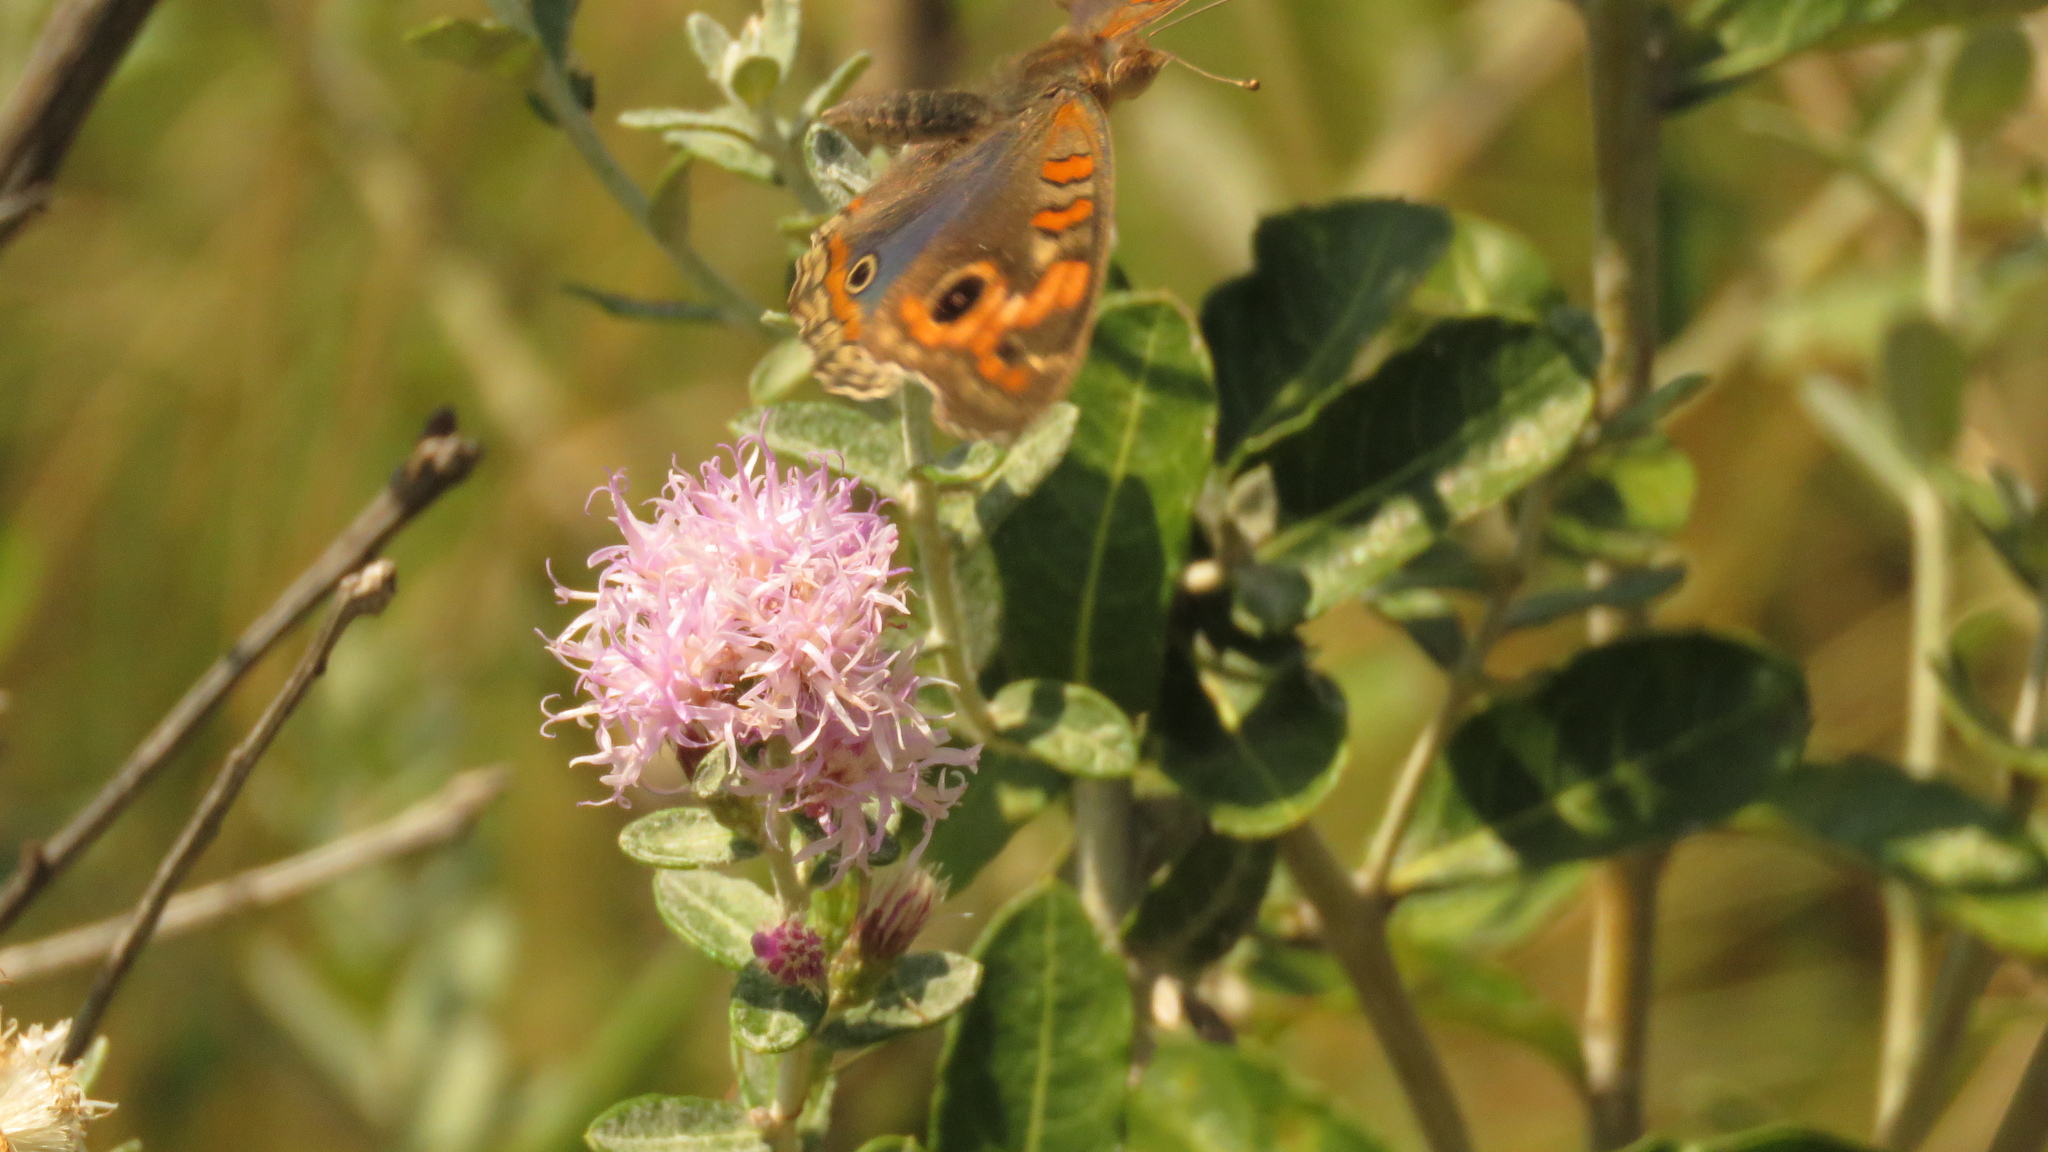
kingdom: Animalia
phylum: Arthropoda
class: Insecta
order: Lepidoptera
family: Nymphalidae
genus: Junonia
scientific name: Junonia lavinia
